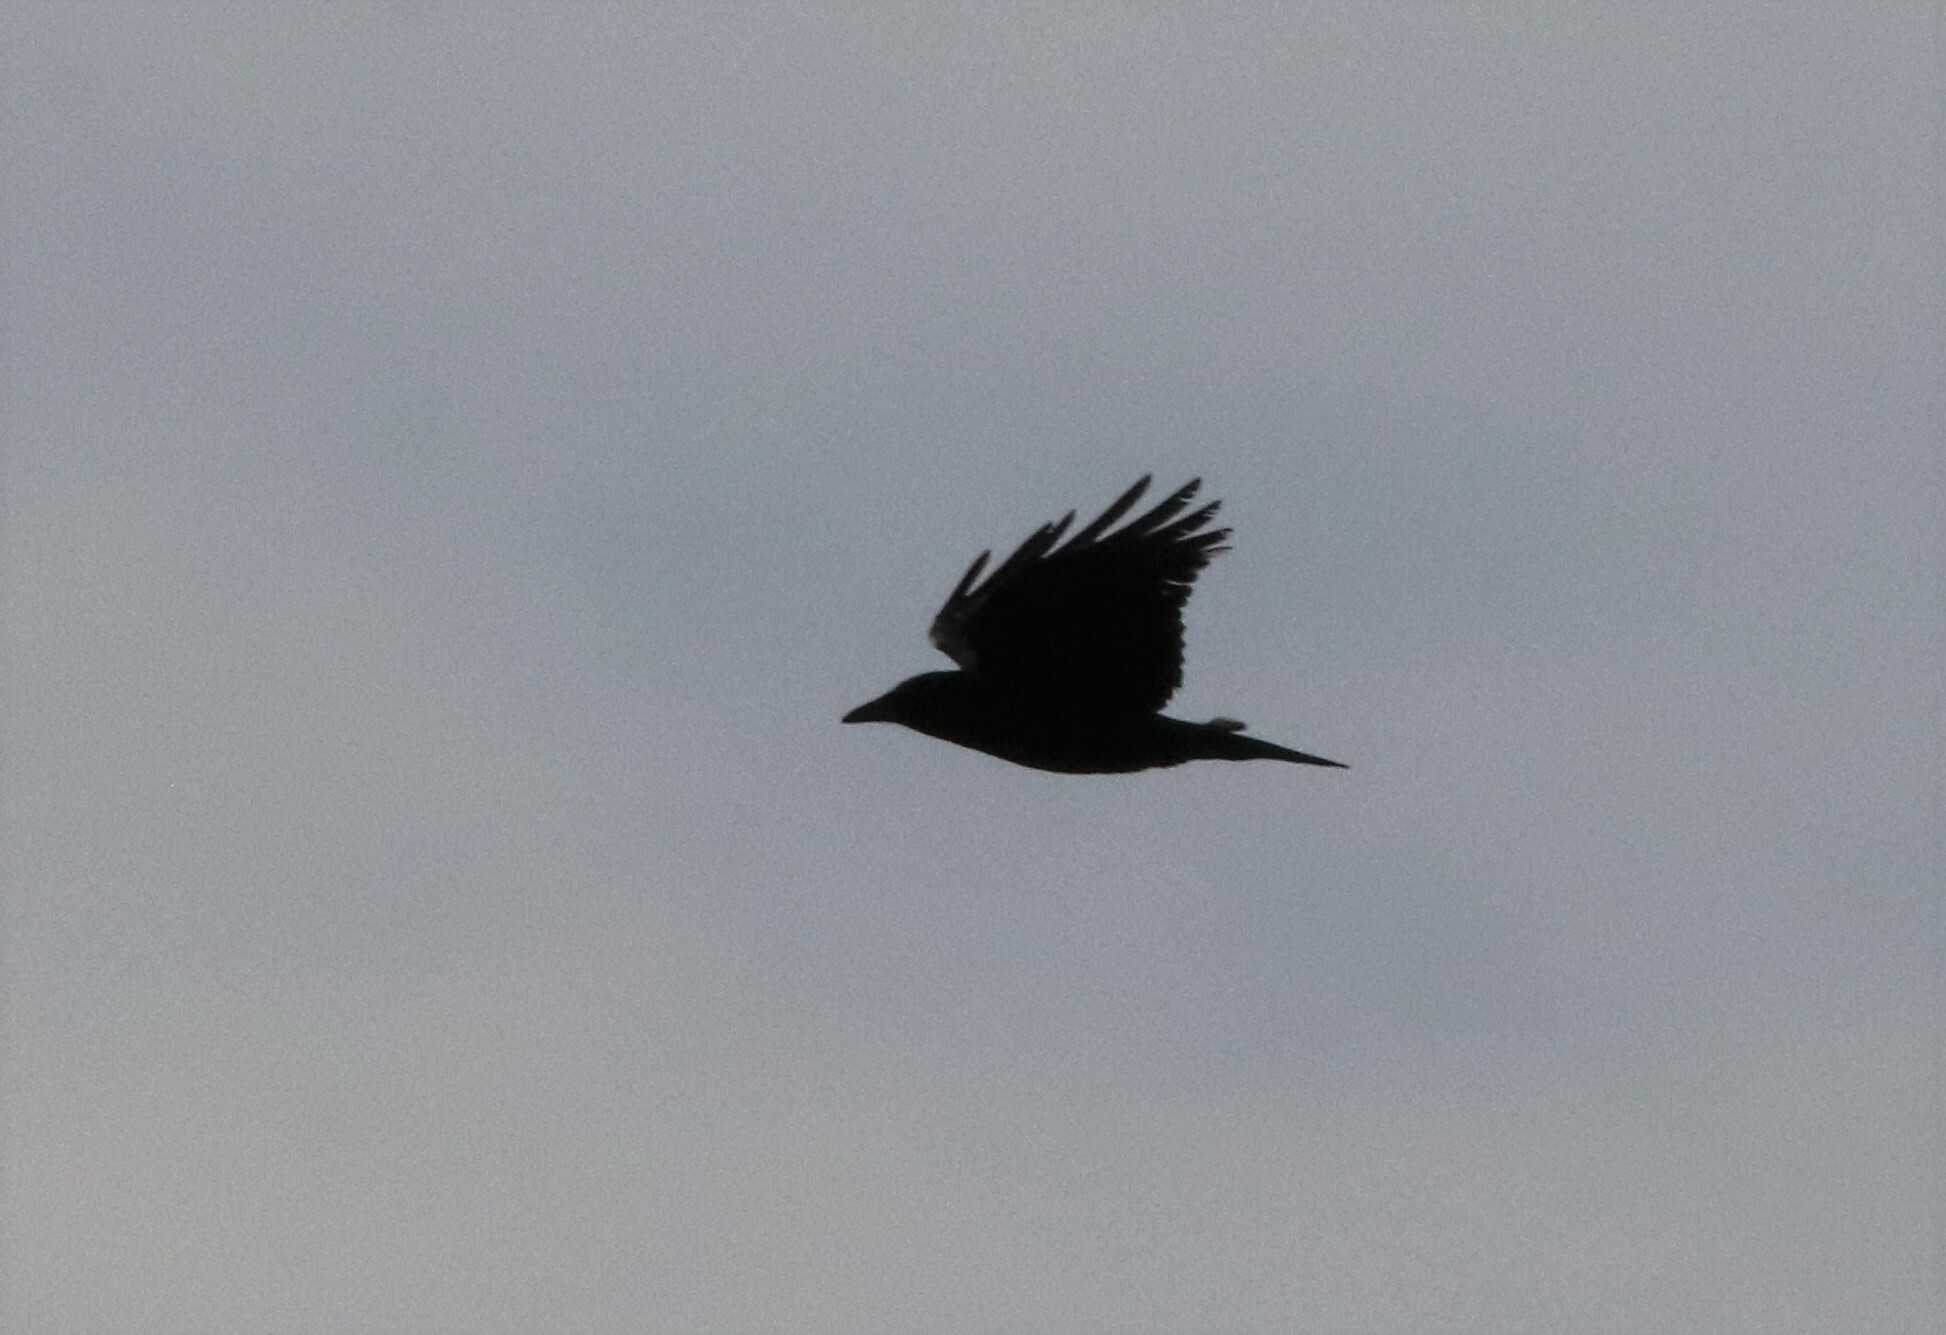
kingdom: Animalia
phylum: Chordata
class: Aves
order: Passeriformes
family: Corvidae
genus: Corvus
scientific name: Corvus brachyrhynchos
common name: American crow
